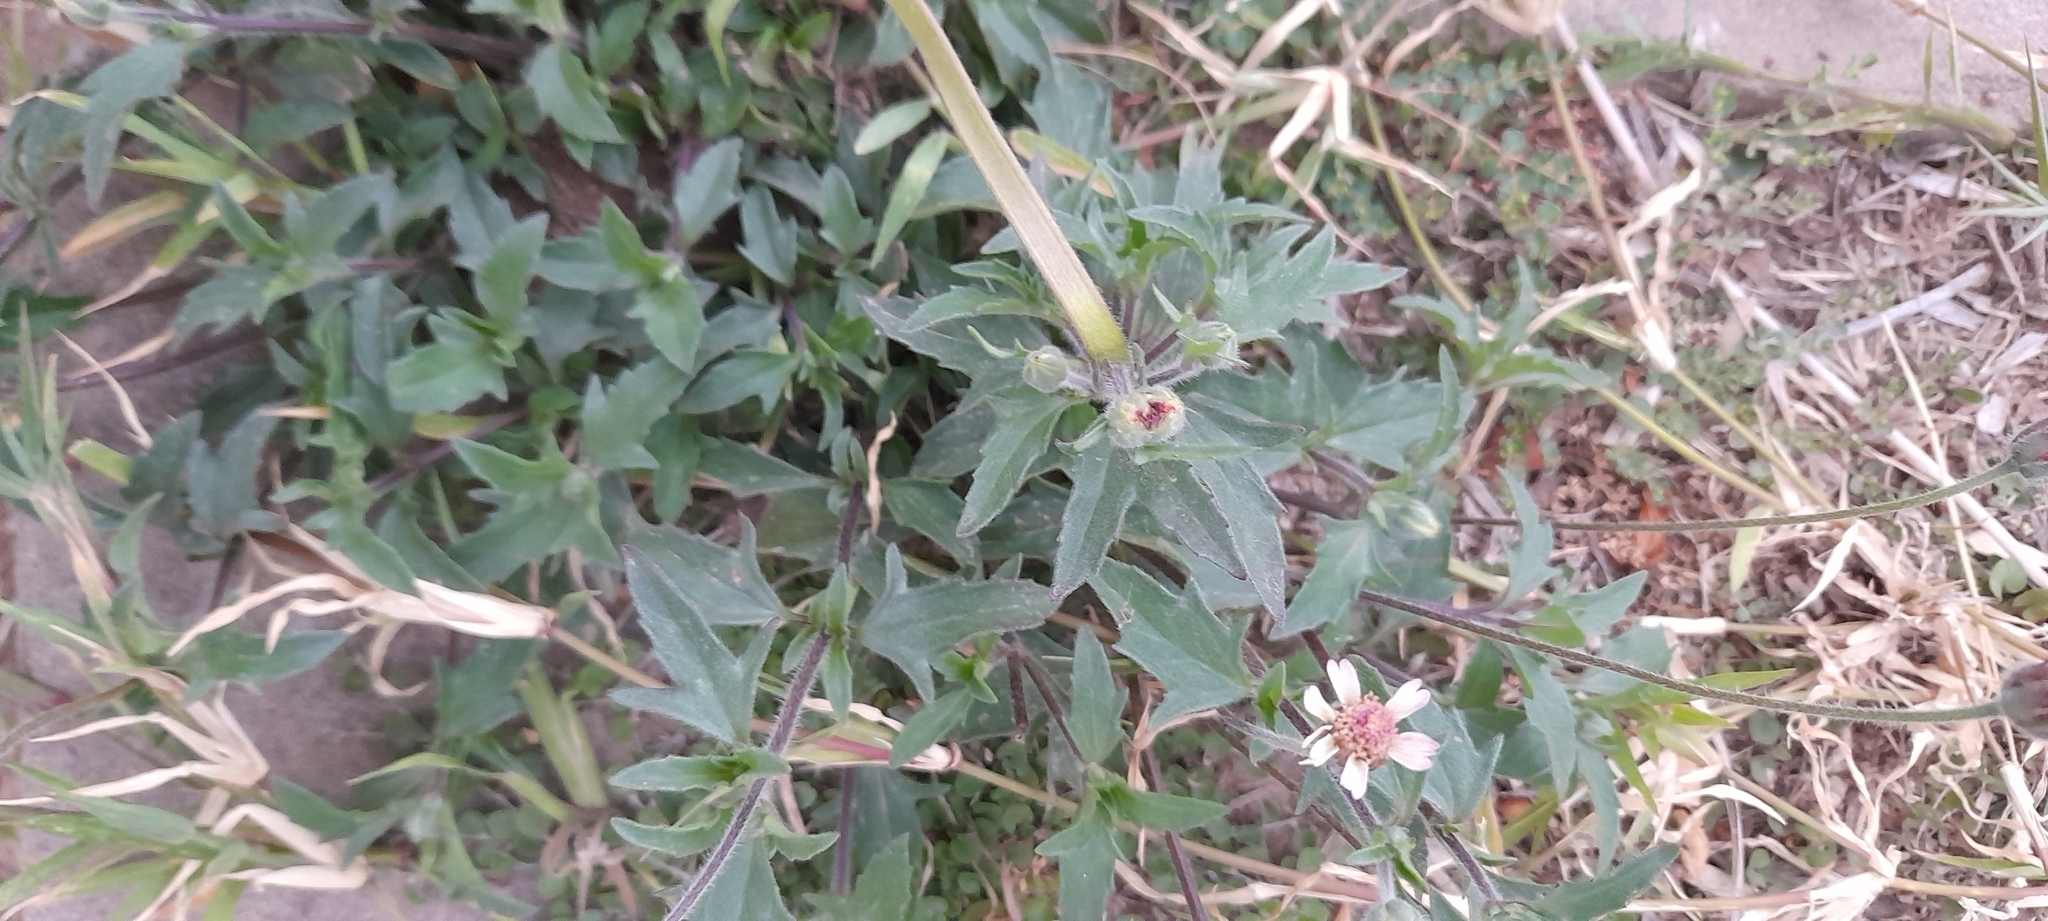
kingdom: Plantae
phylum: Tracheophyta
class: Magnoliopsida
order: Asterales
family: Asteraceae
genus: Tridax
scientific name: Tridax procumbens
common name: Coatbuttons
